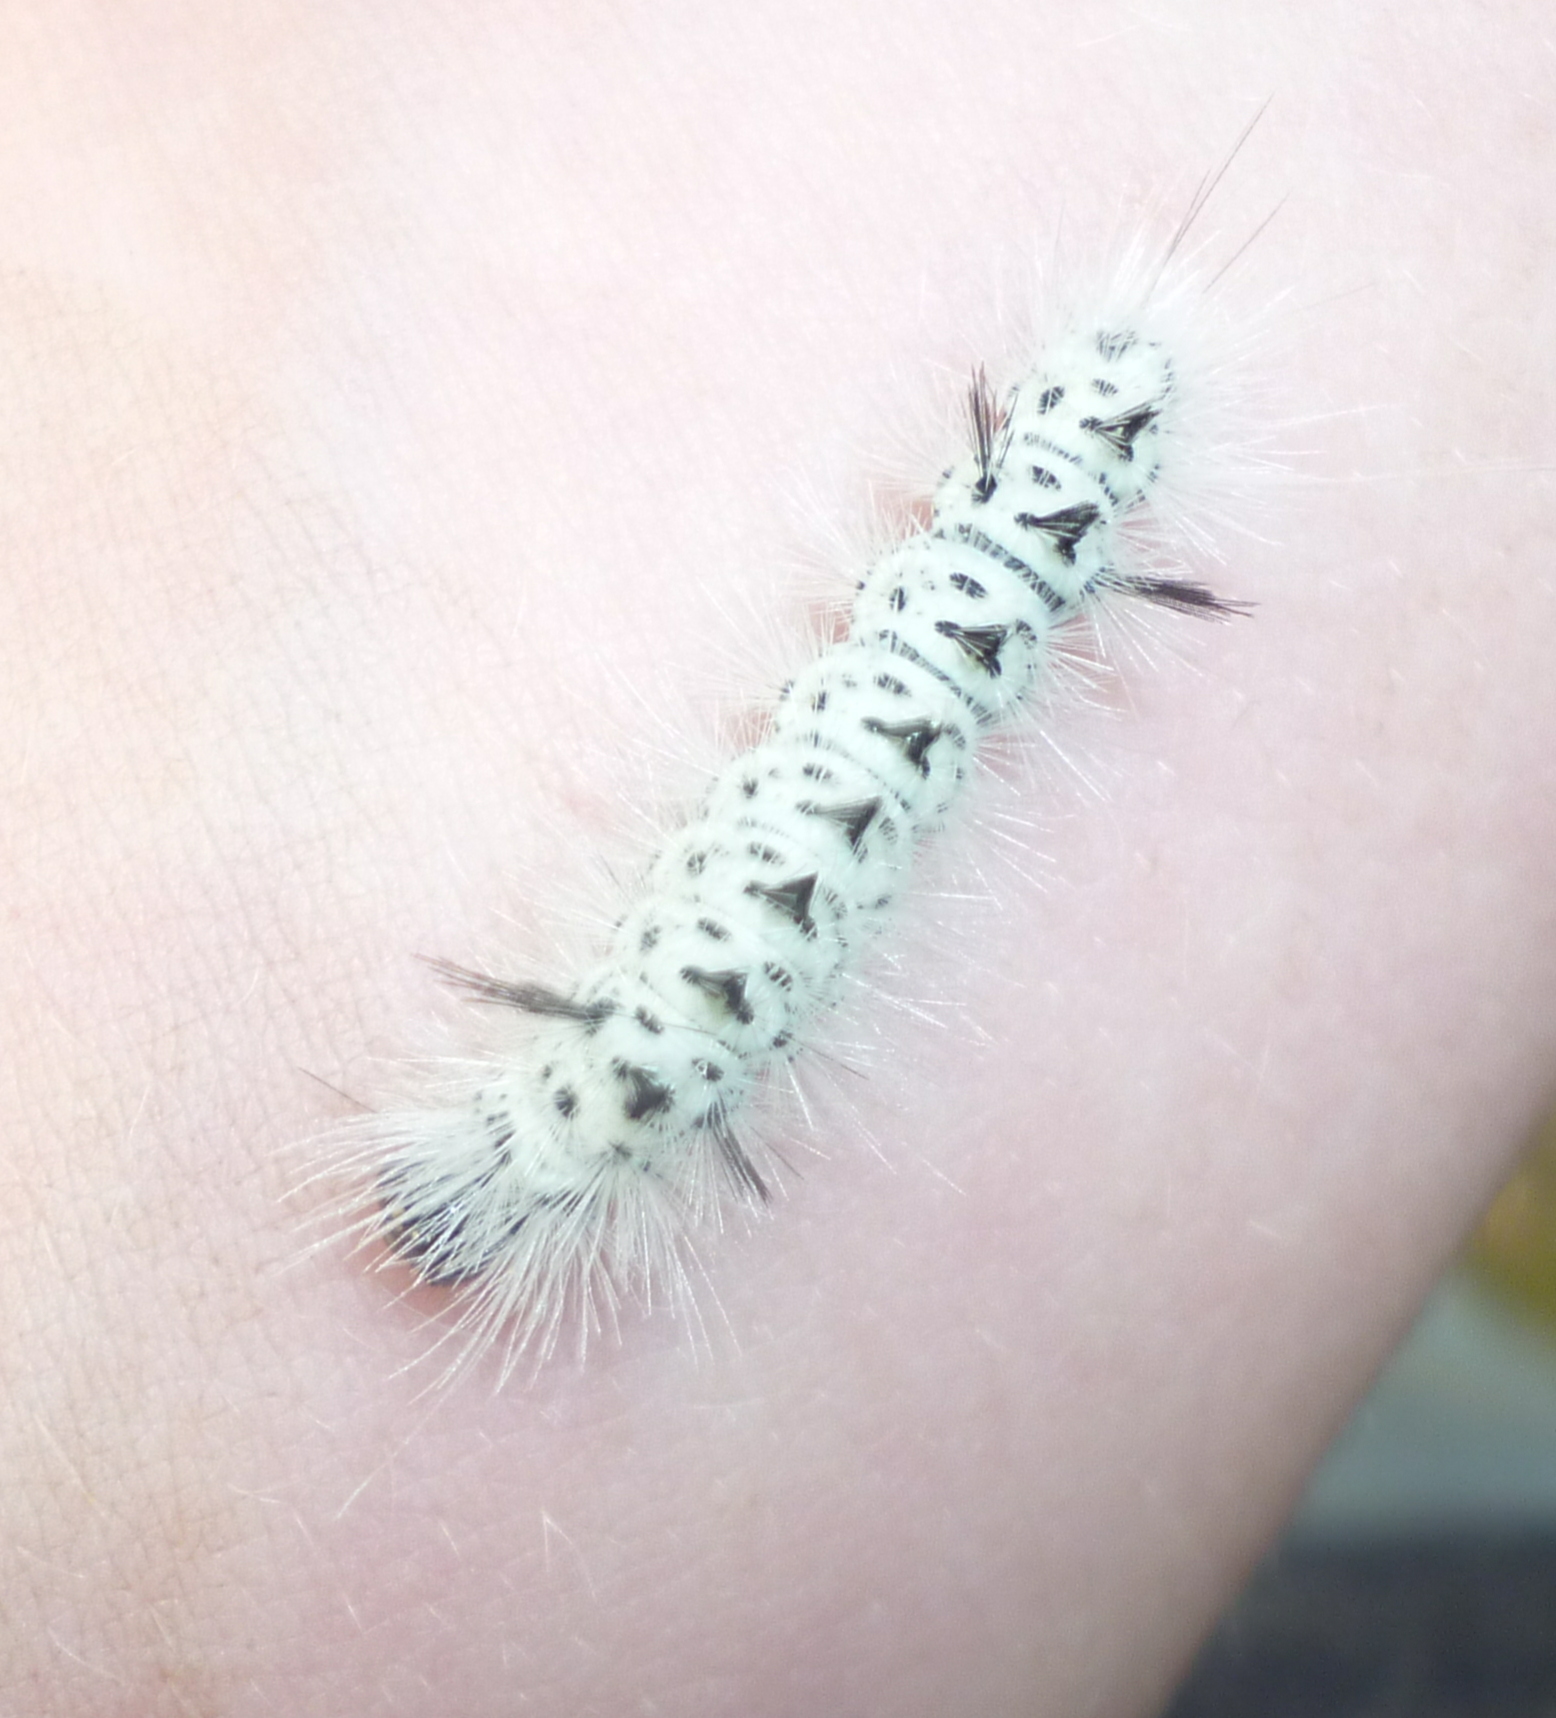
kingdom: Animalia
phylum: Arthropoda
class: Insecta
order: Lepidoptera
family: Erebidae
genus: Lophocampa
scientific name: Lophocampa caryae
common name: Hickory tussock moth
